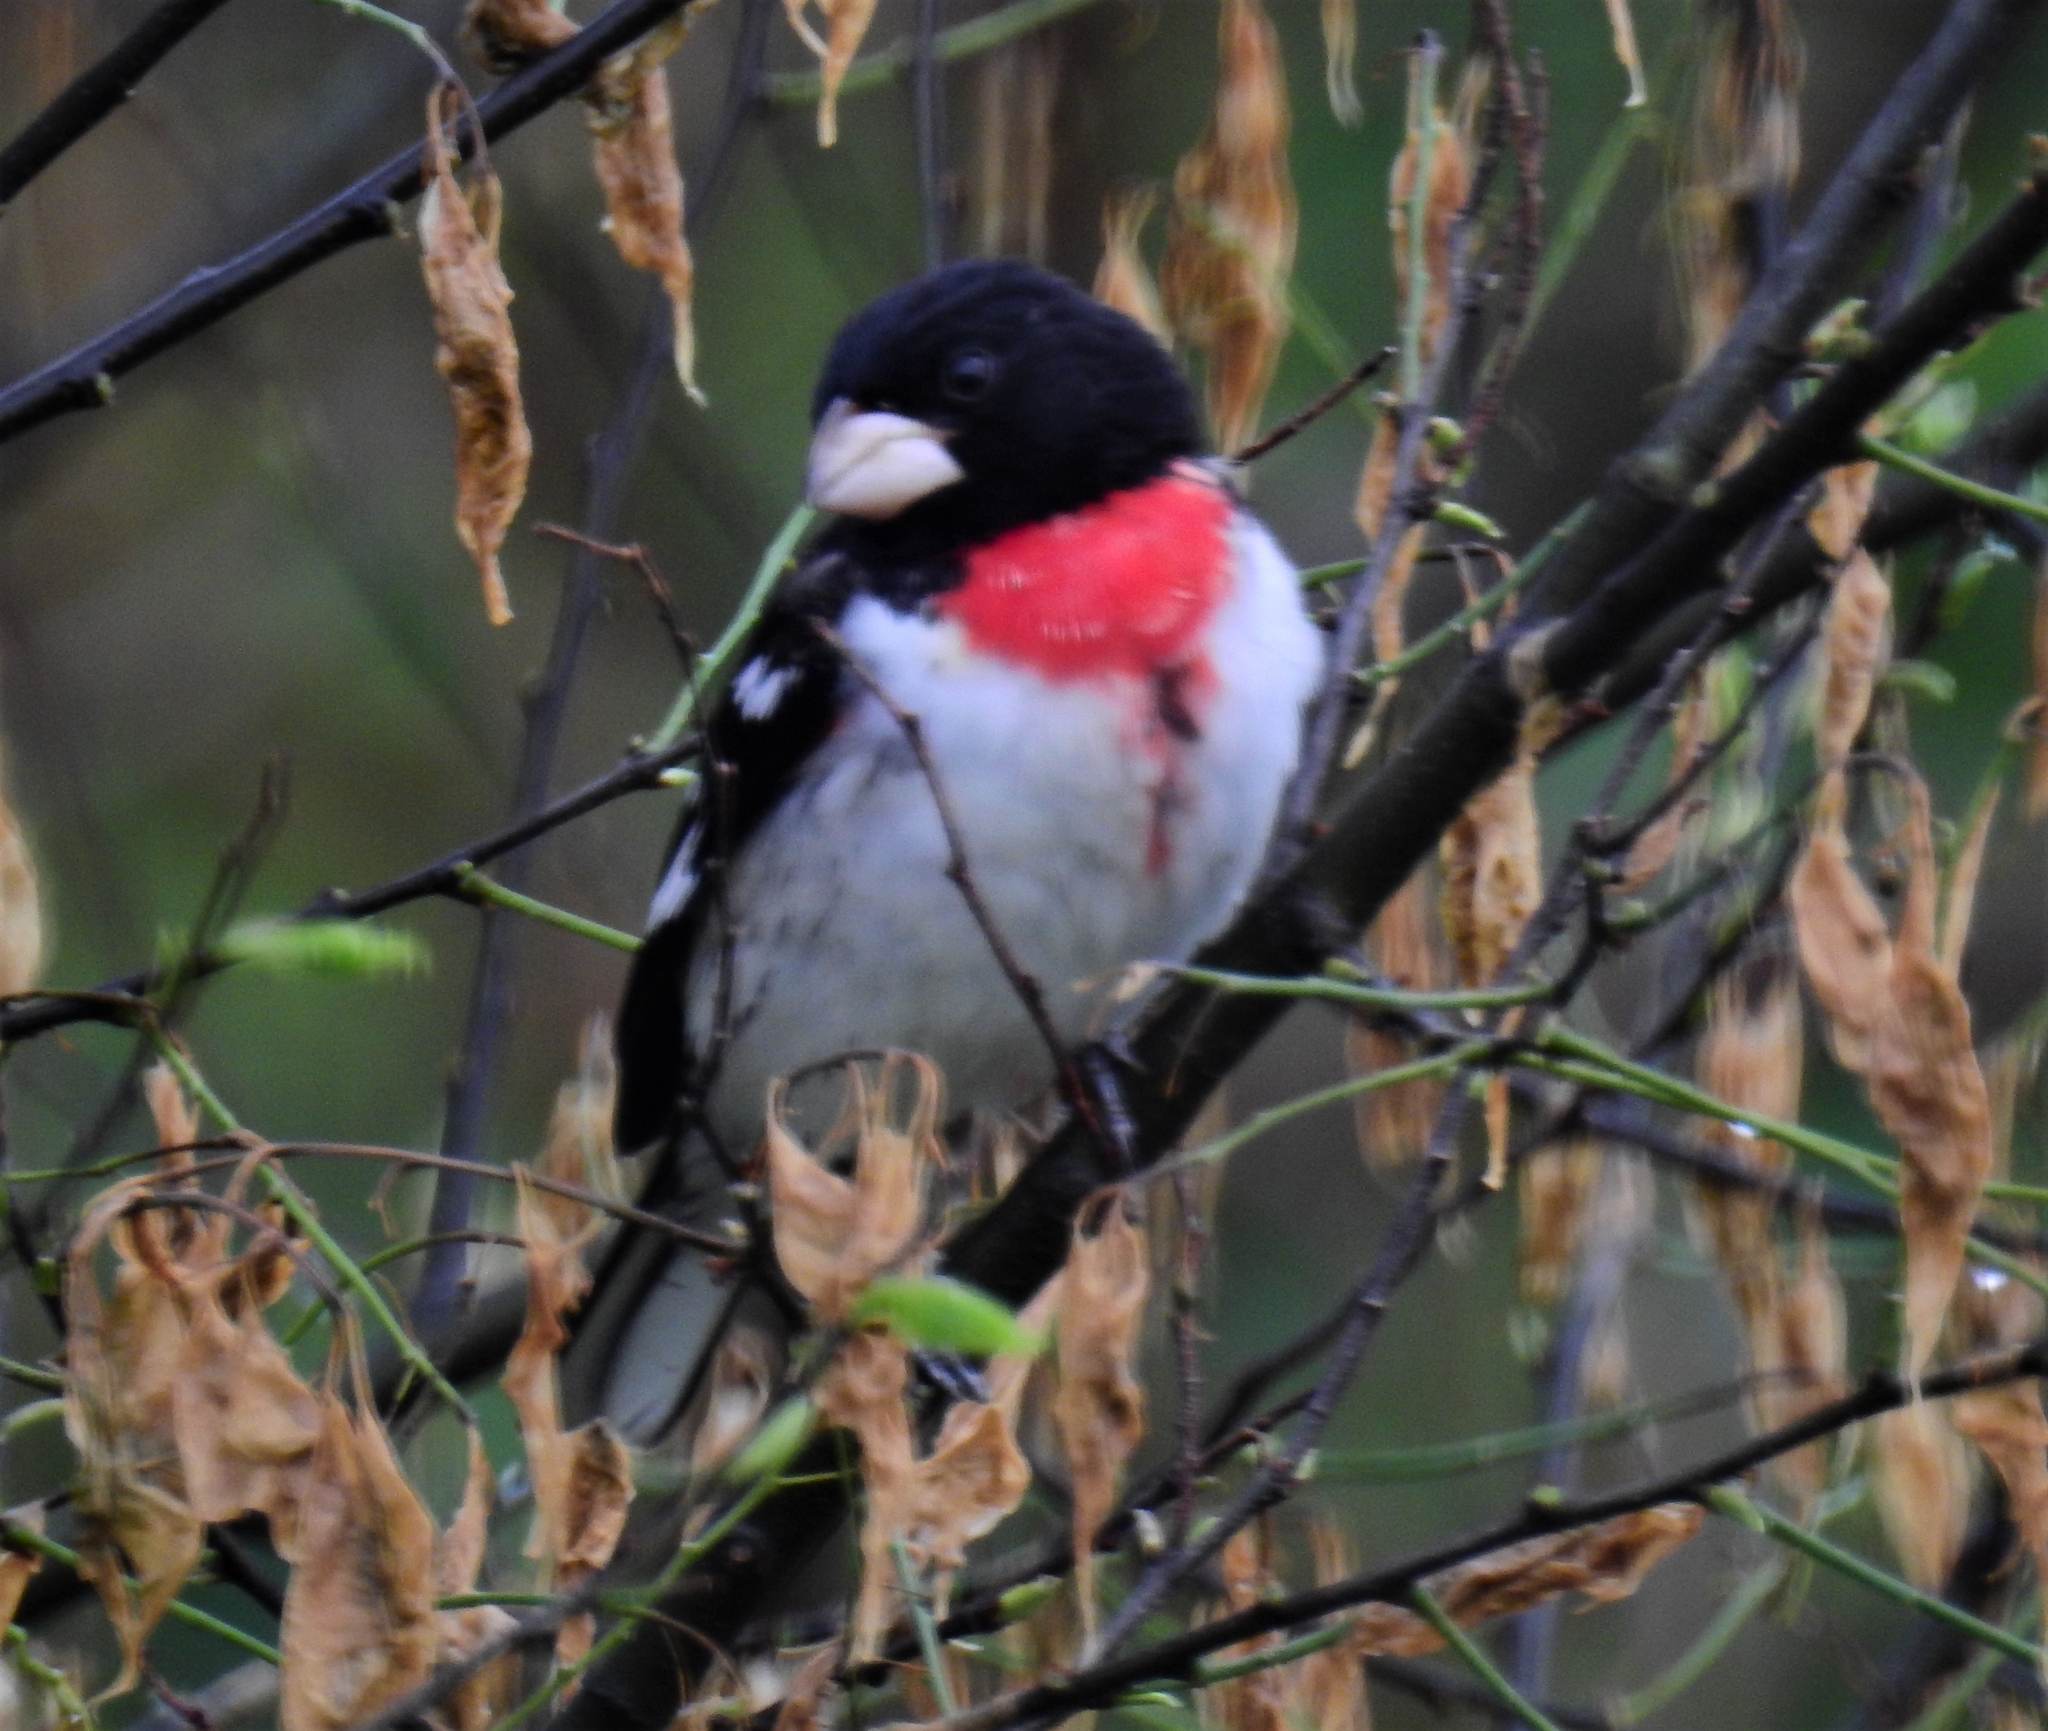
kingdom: Animalia
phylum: Chordata
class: Aves
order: Passeriformes
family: Cardinalidae
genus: Pheucticus
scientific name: Pheucticus ludovicianus
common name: Rose-breasted grosbeak
